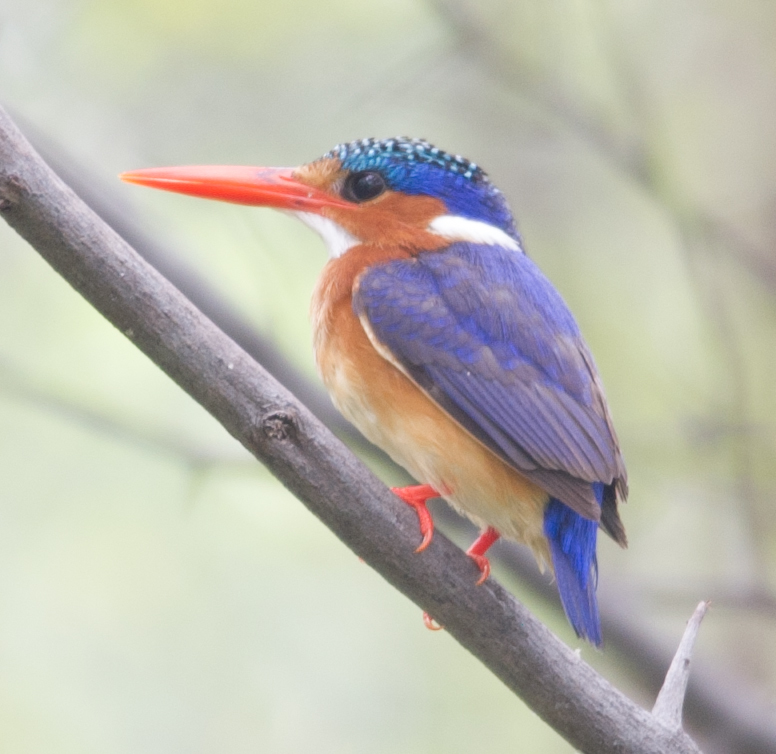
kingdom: Animalia
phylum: Chordata
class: Aves
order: Coraciiformes
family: Alcedinidae
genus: Corythornis
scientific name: Corythornis cristatus
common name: Malachite kingfisher
